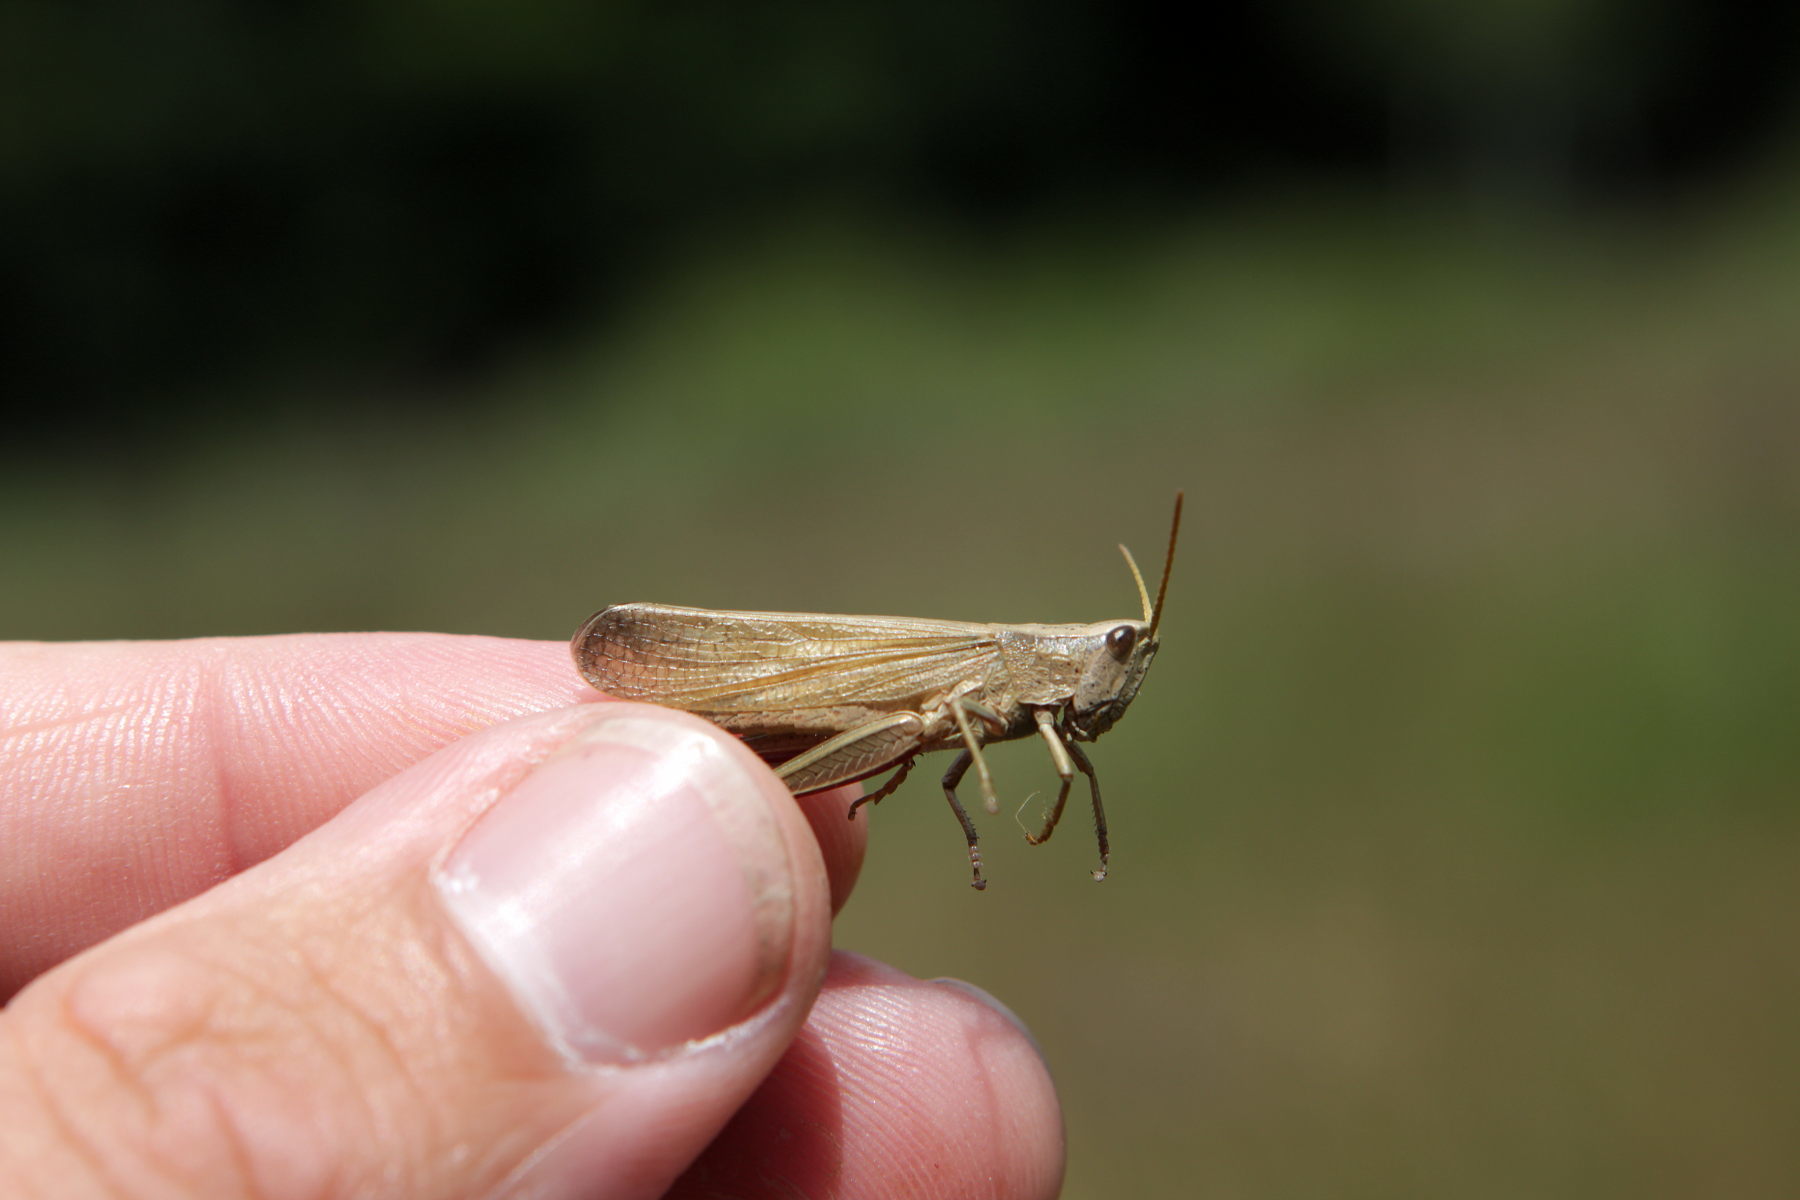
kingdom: Animalia
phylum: Arthropoda
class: Insecta
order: Orthoptera
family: Acrididae
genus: Chrysochraon
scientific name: Chrysochraon dispar
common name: Large gold grasshopper
